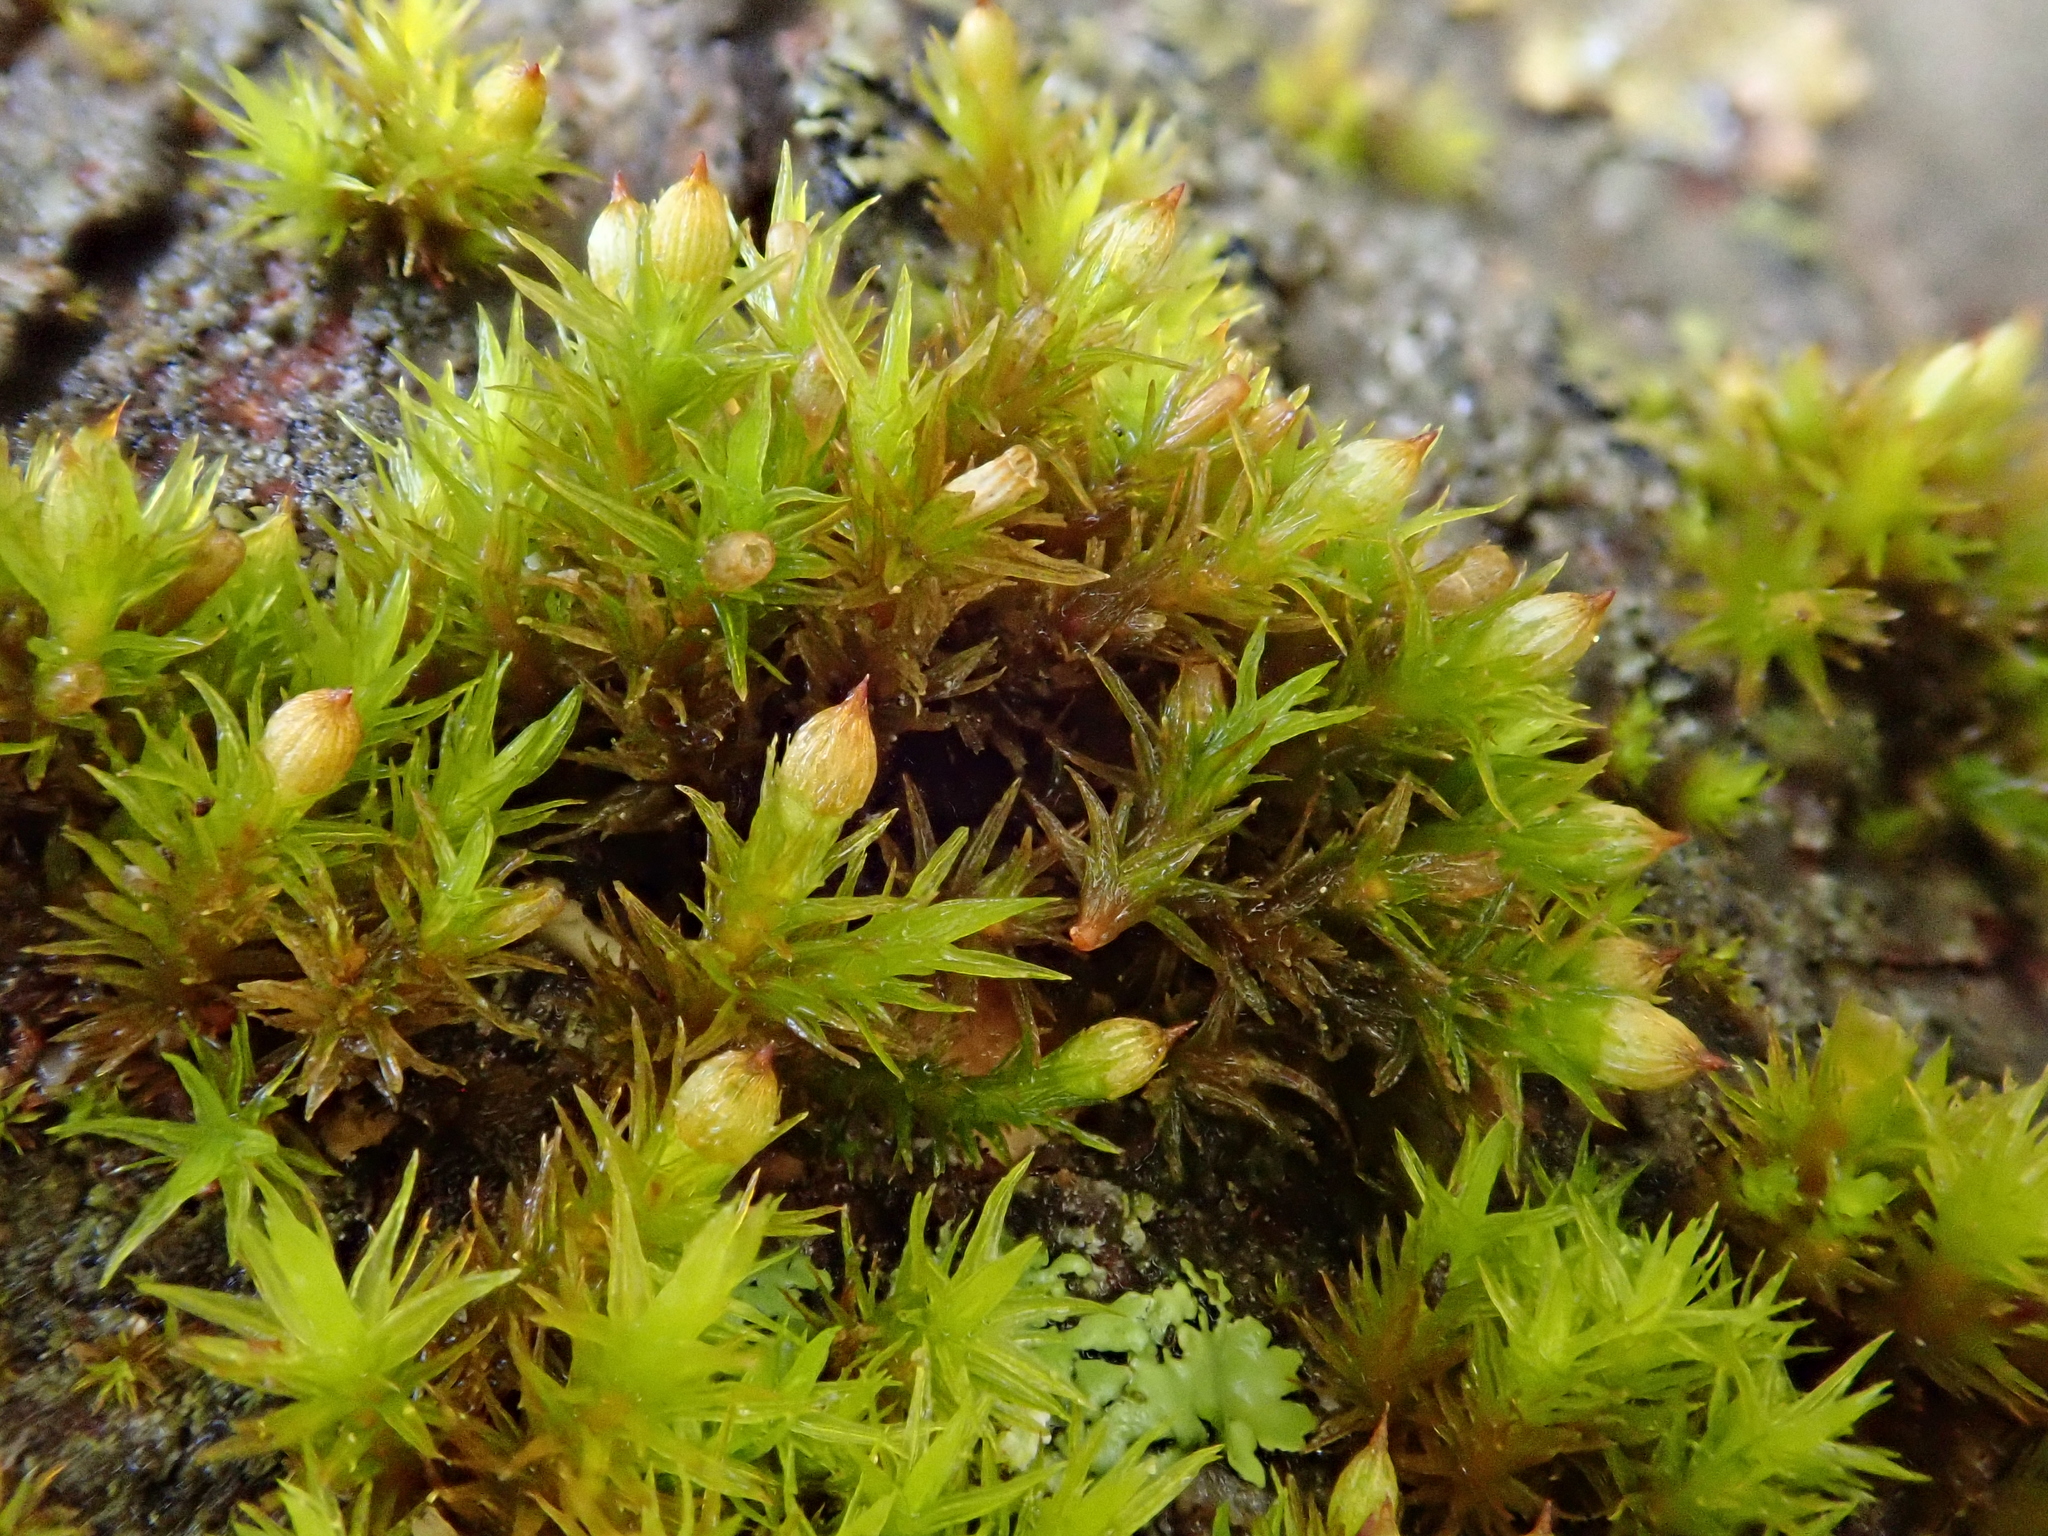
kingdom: Plantae
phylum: Bryophyta
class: Bryopsida
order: Orthotrichales
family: Orthotrichaceae
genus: Orthotrichum
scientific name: Orthotrichum stramineum
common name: Straw bristle-moss
